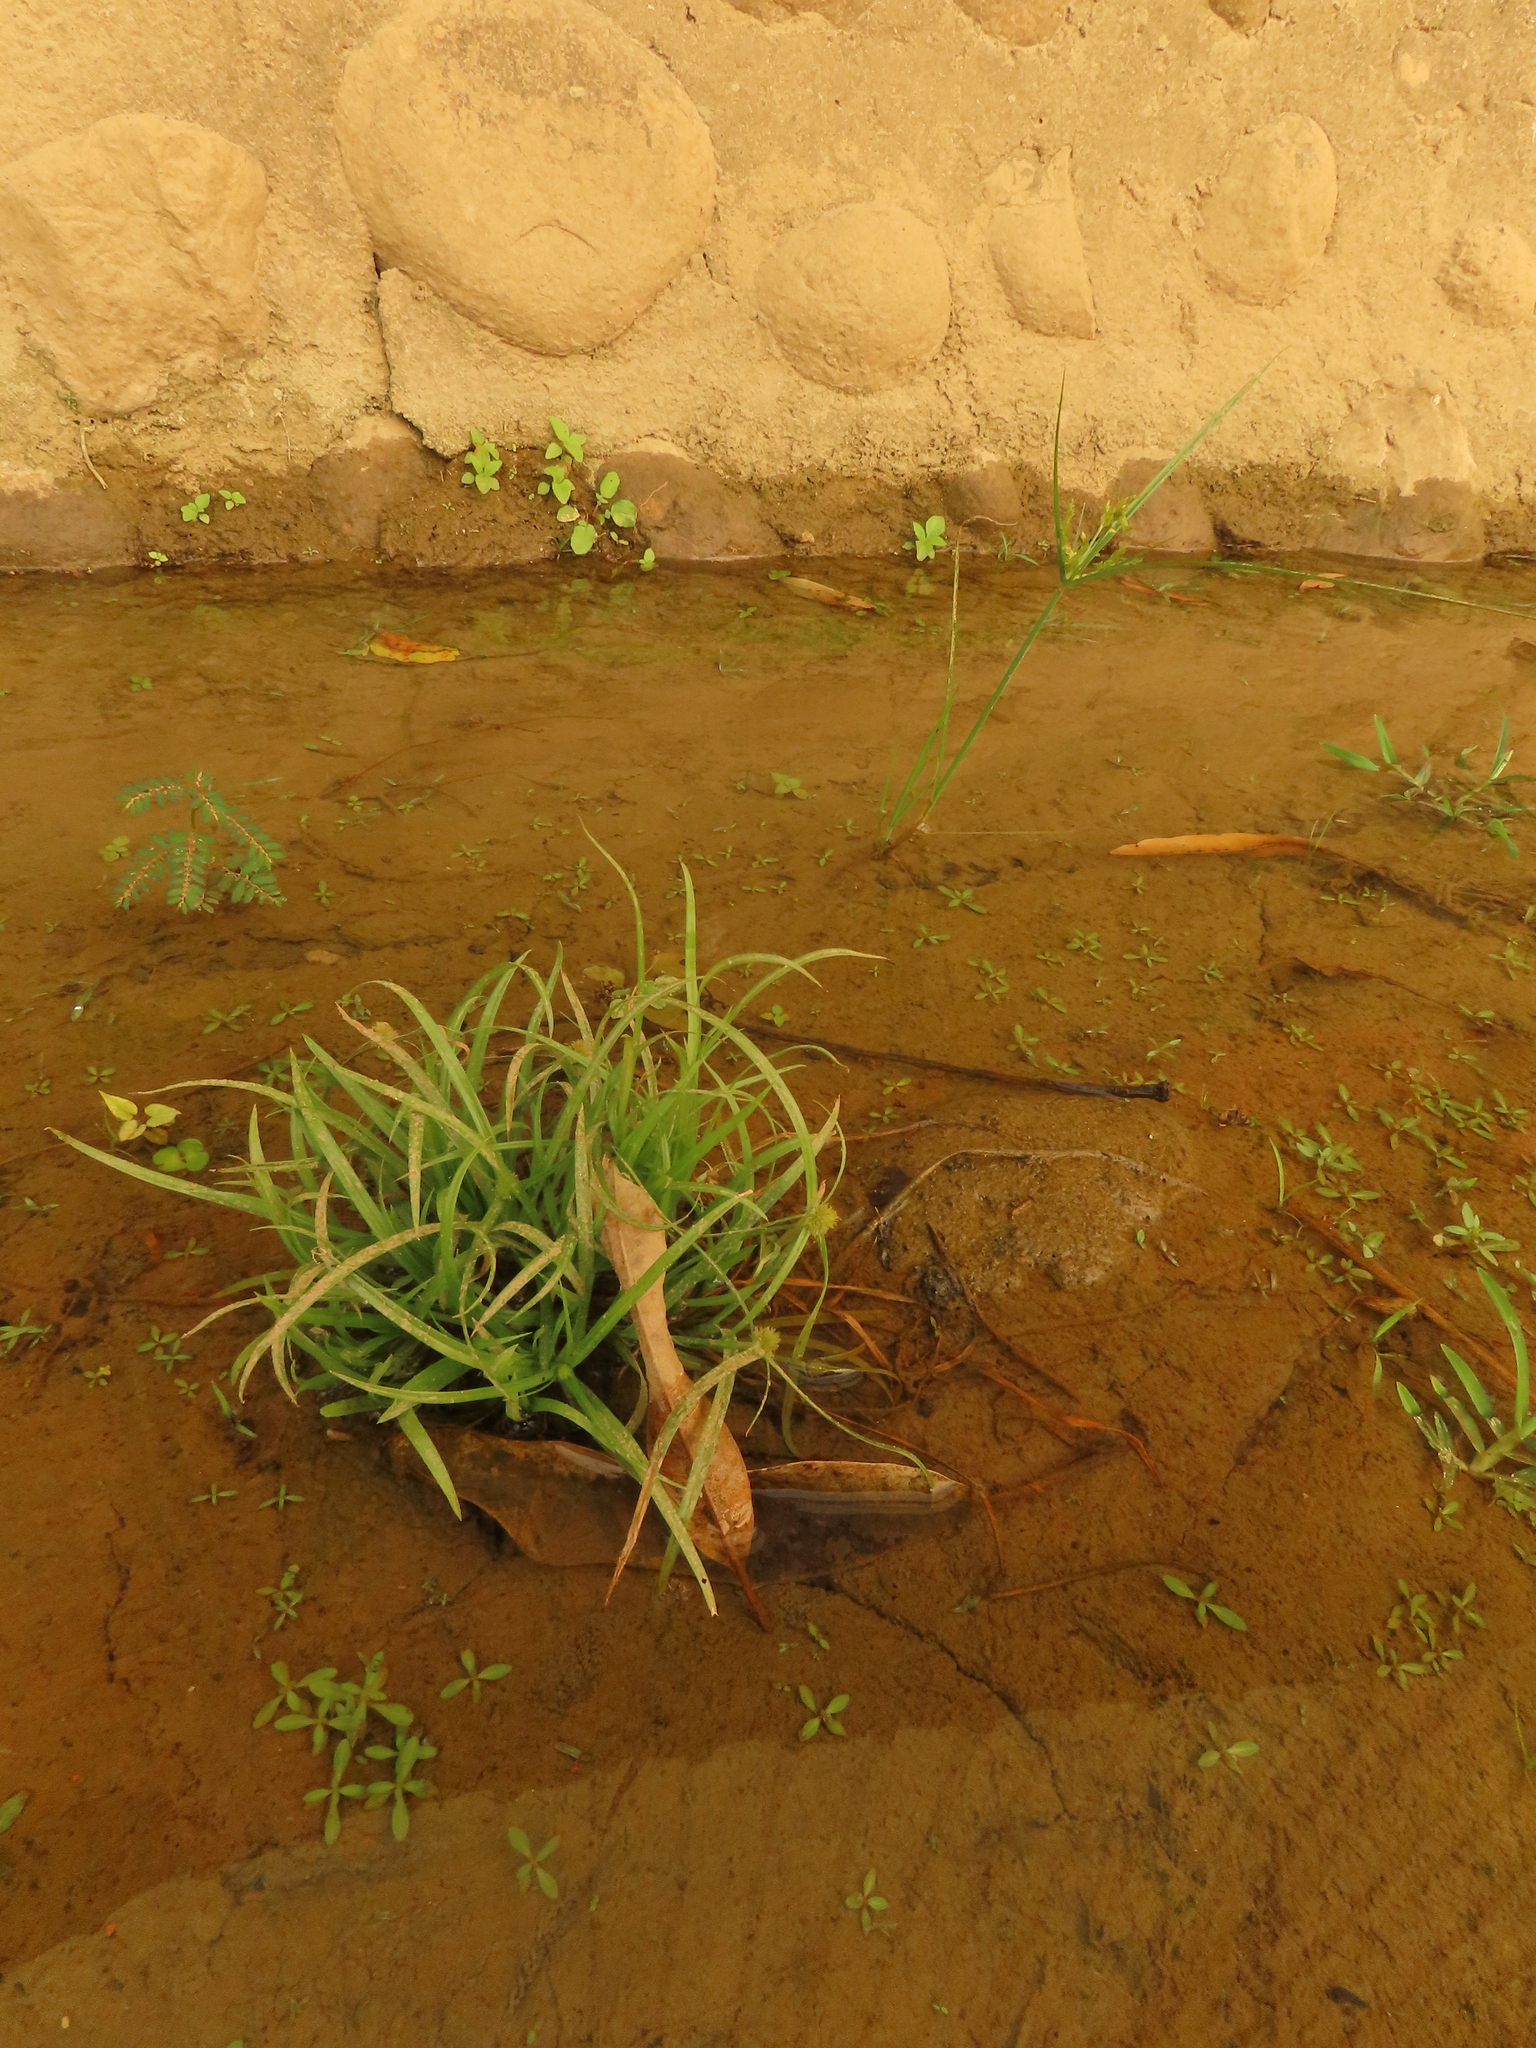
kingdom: Plantae
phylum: Tracheophyta
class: Liliopsida
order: Poales
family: Cyperaceae
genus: Cyperus
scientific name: Cyperus brevifolius
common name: Globe kyllinga
